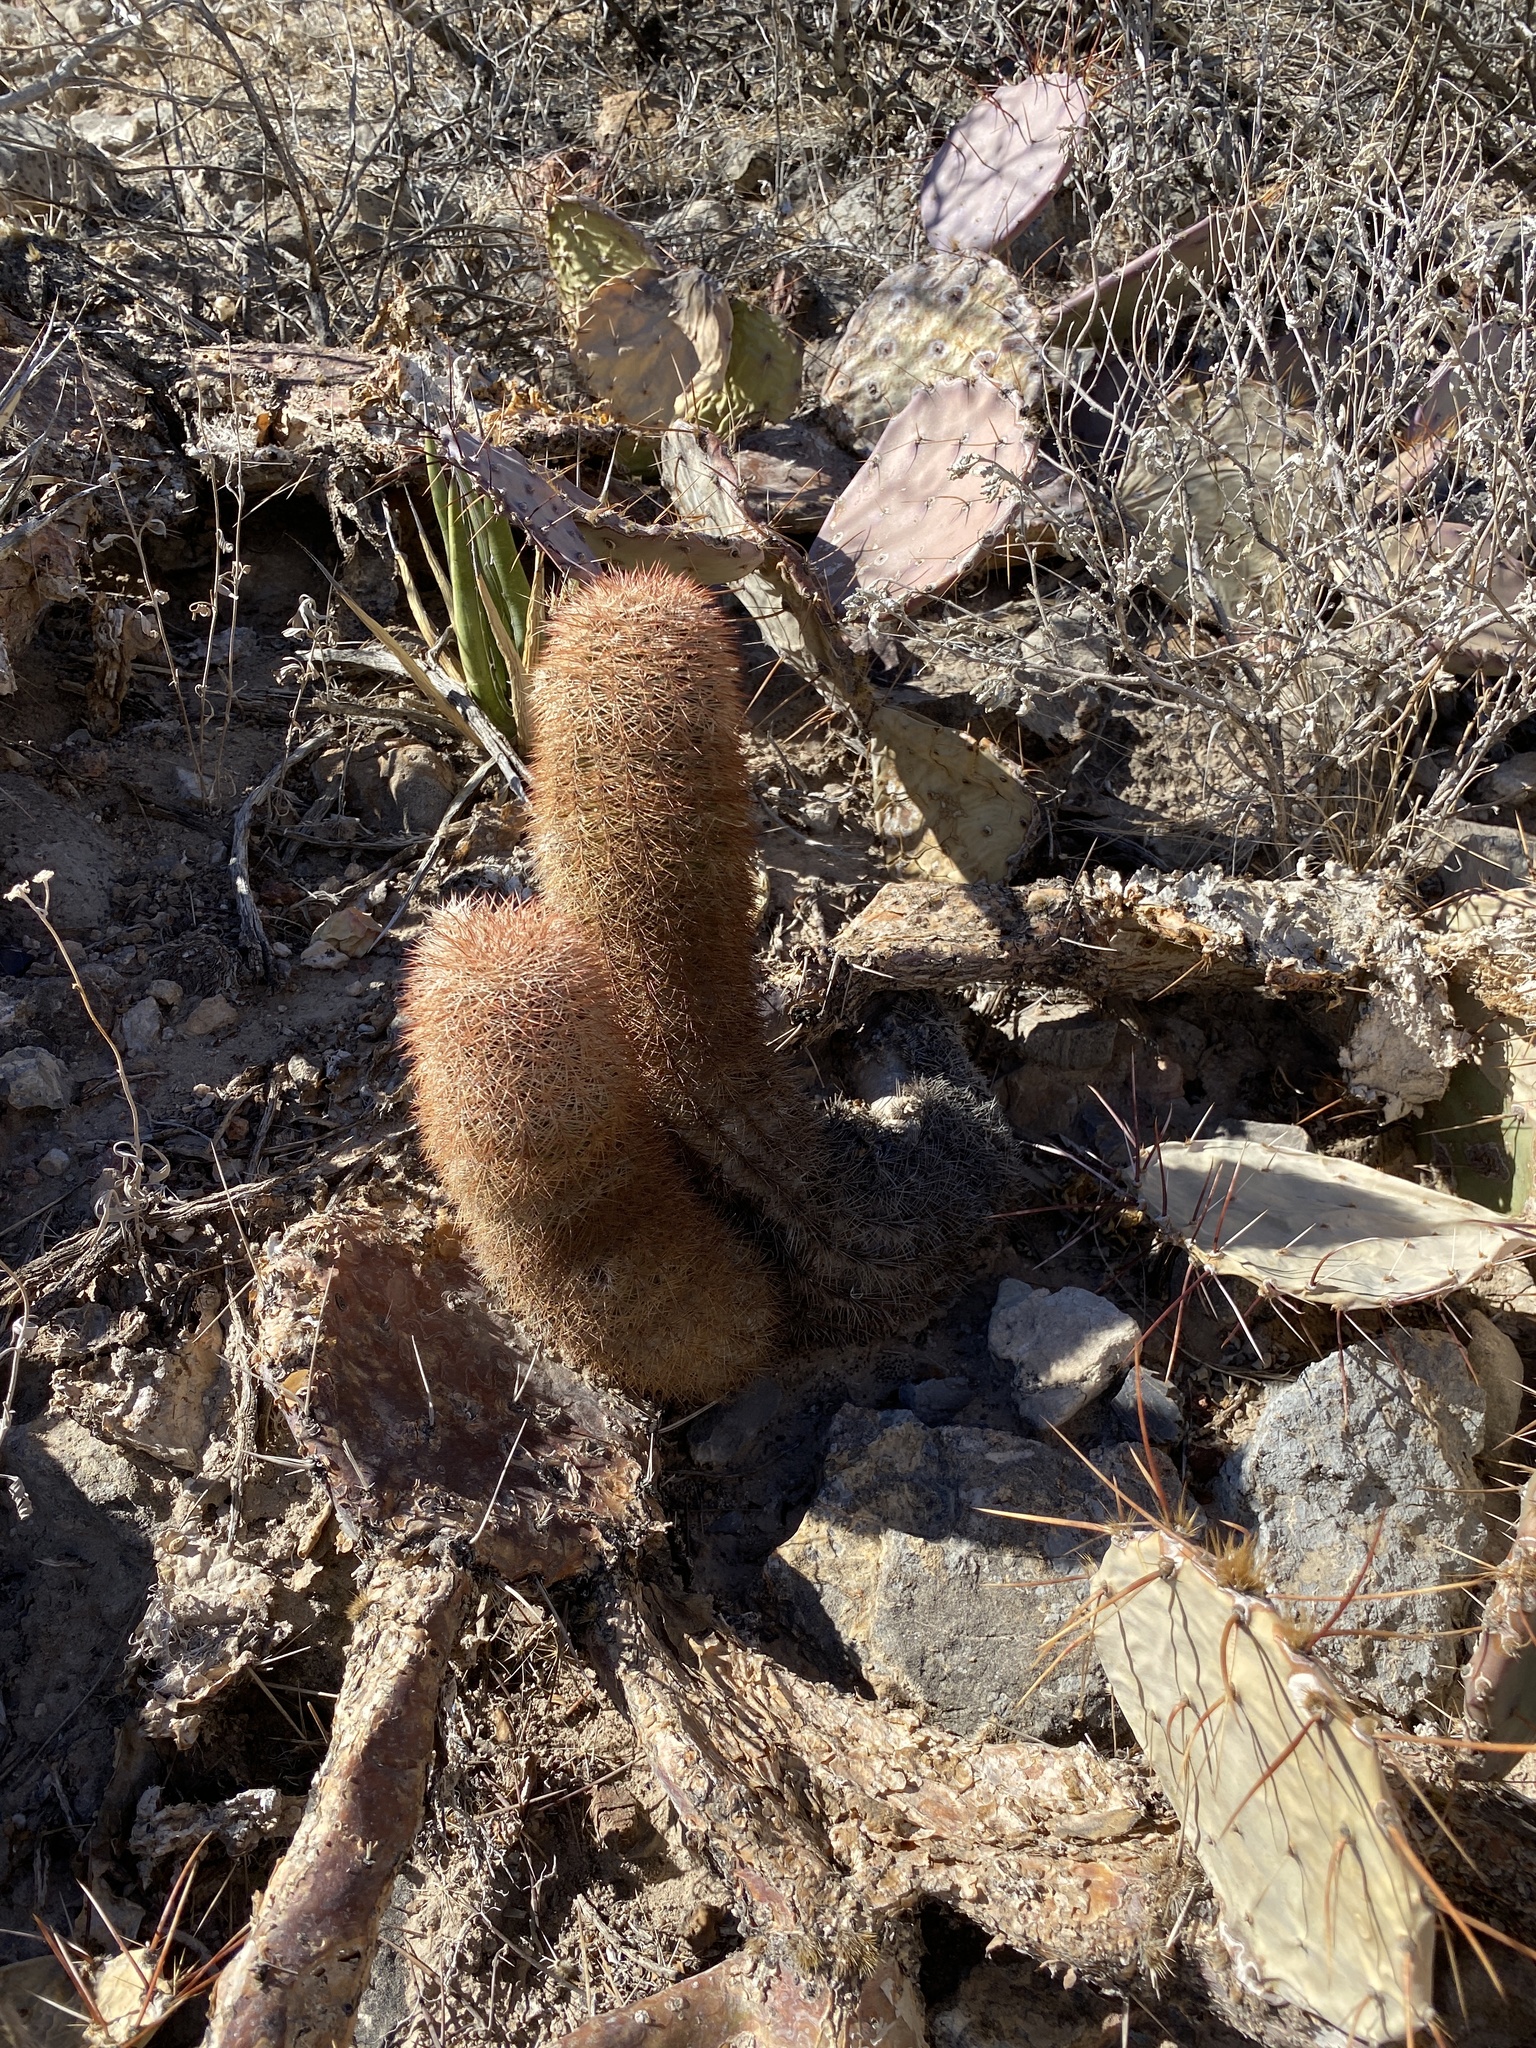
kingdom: Plantae
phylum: Tracheophyta
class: Magnoliopsida
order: Caryophyllales
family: Cactaceae
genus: Echinocereus
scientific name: Echinocereus dasyacanthus
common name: Spiny hedgehog cactus
